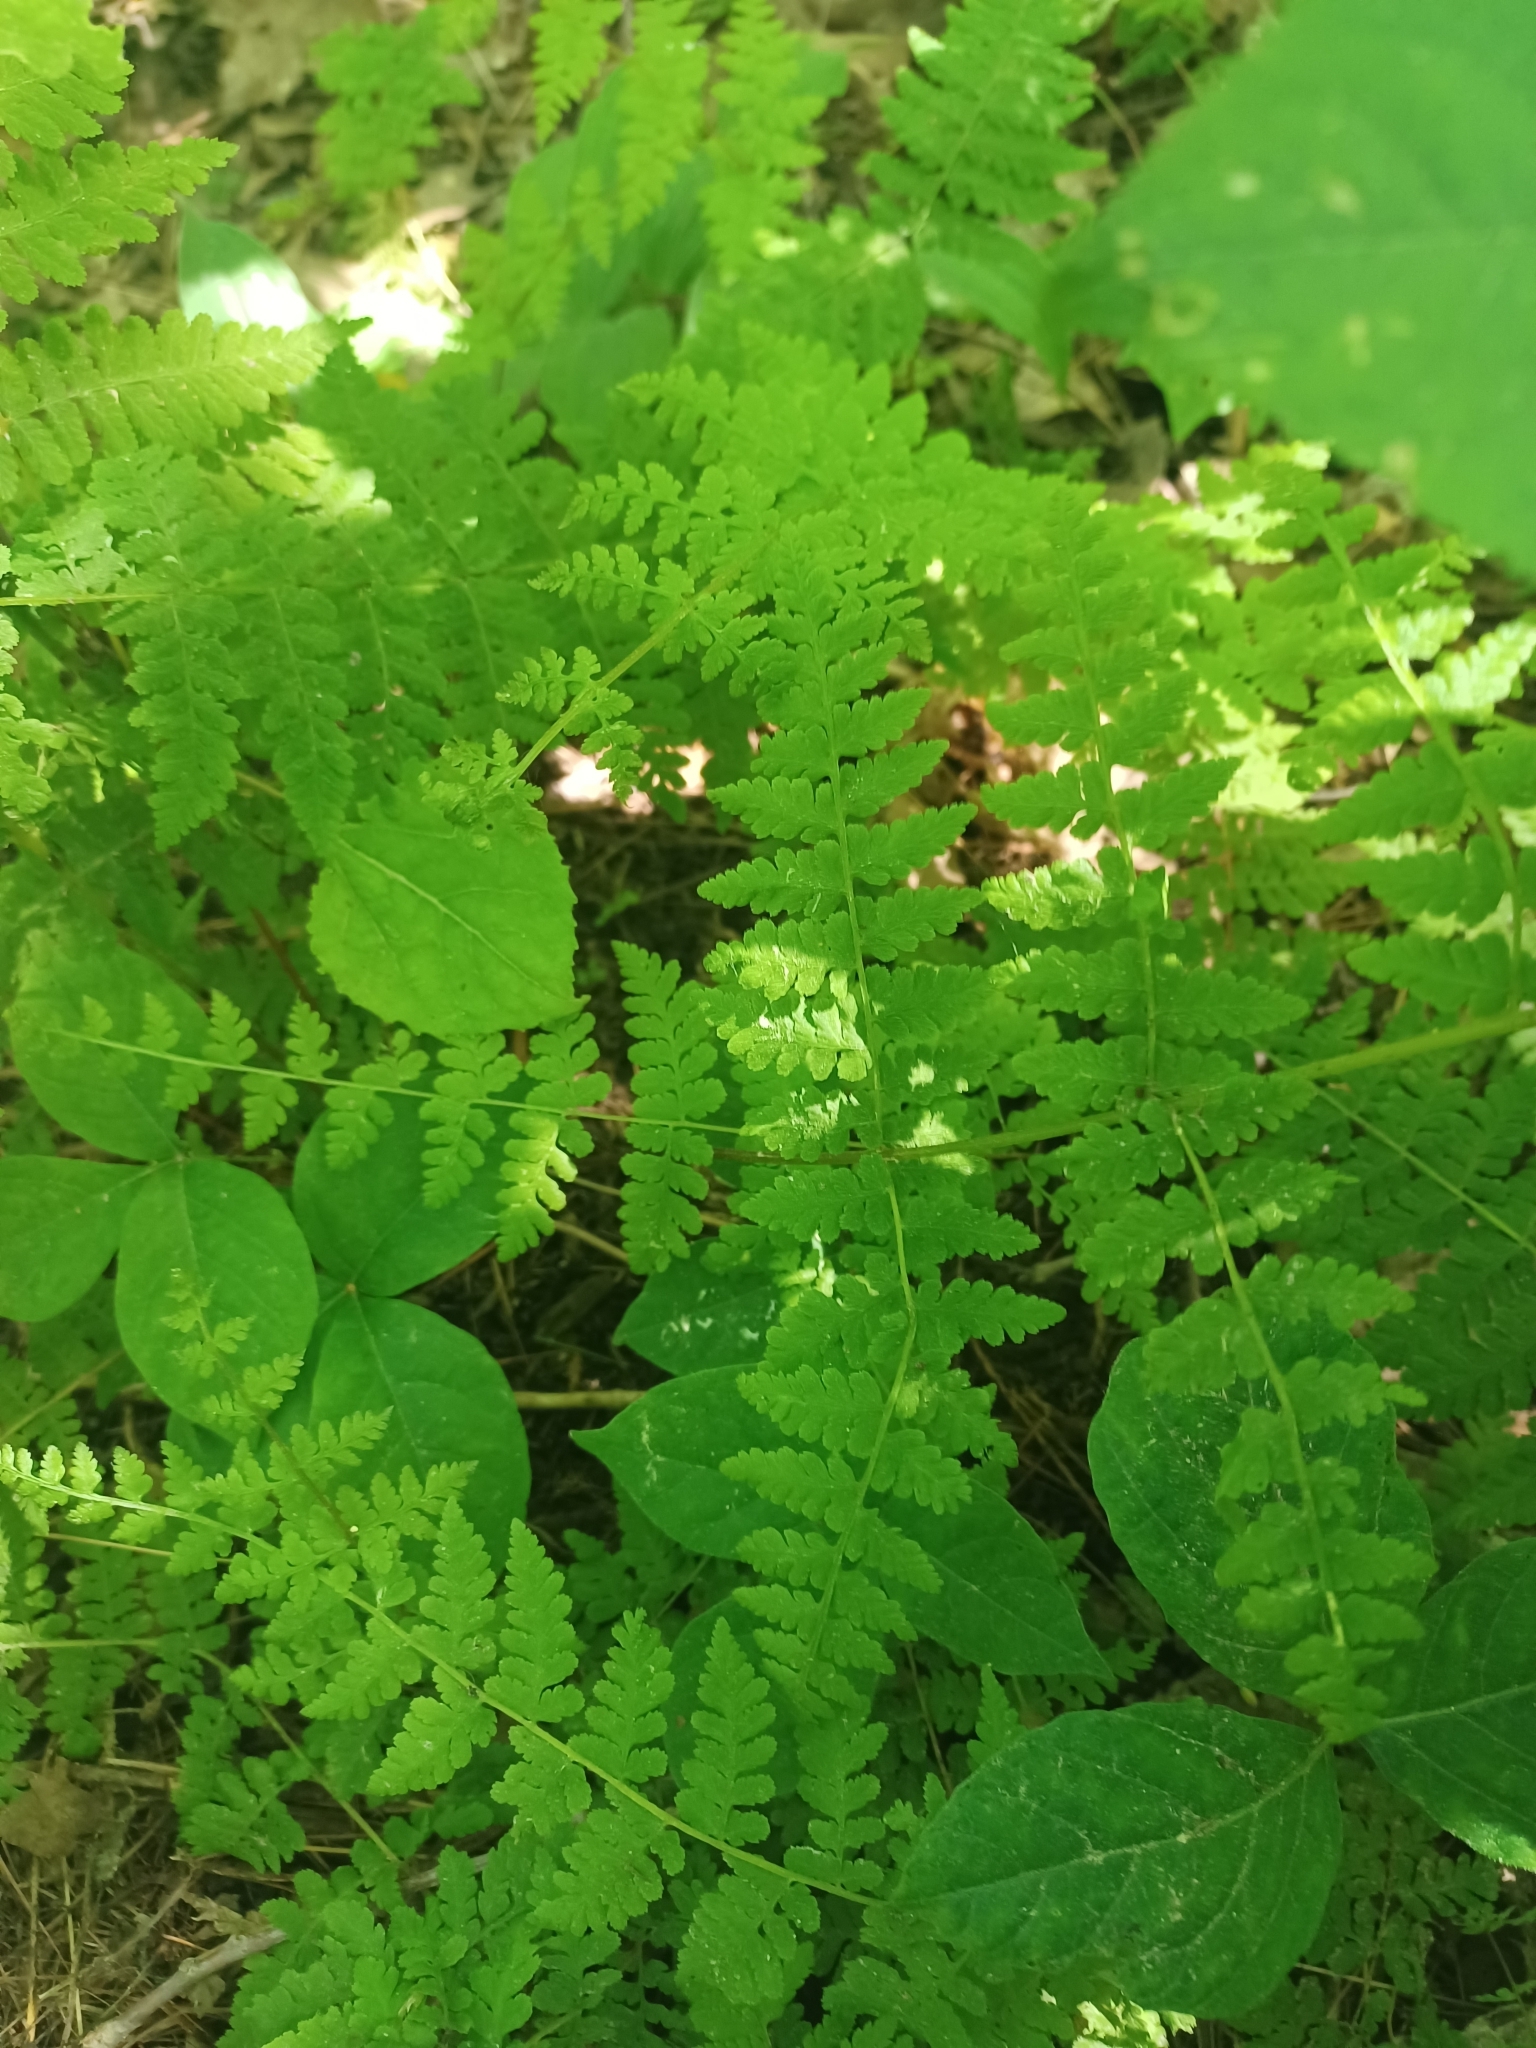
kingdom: Plantae
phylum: Tracheophyta
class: Polypodiopsida
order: Polypodiales
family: Cystopteridaceae
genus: Cystopteris
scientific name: Cystopteris bulbifera
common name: Bulblet bladder fern
